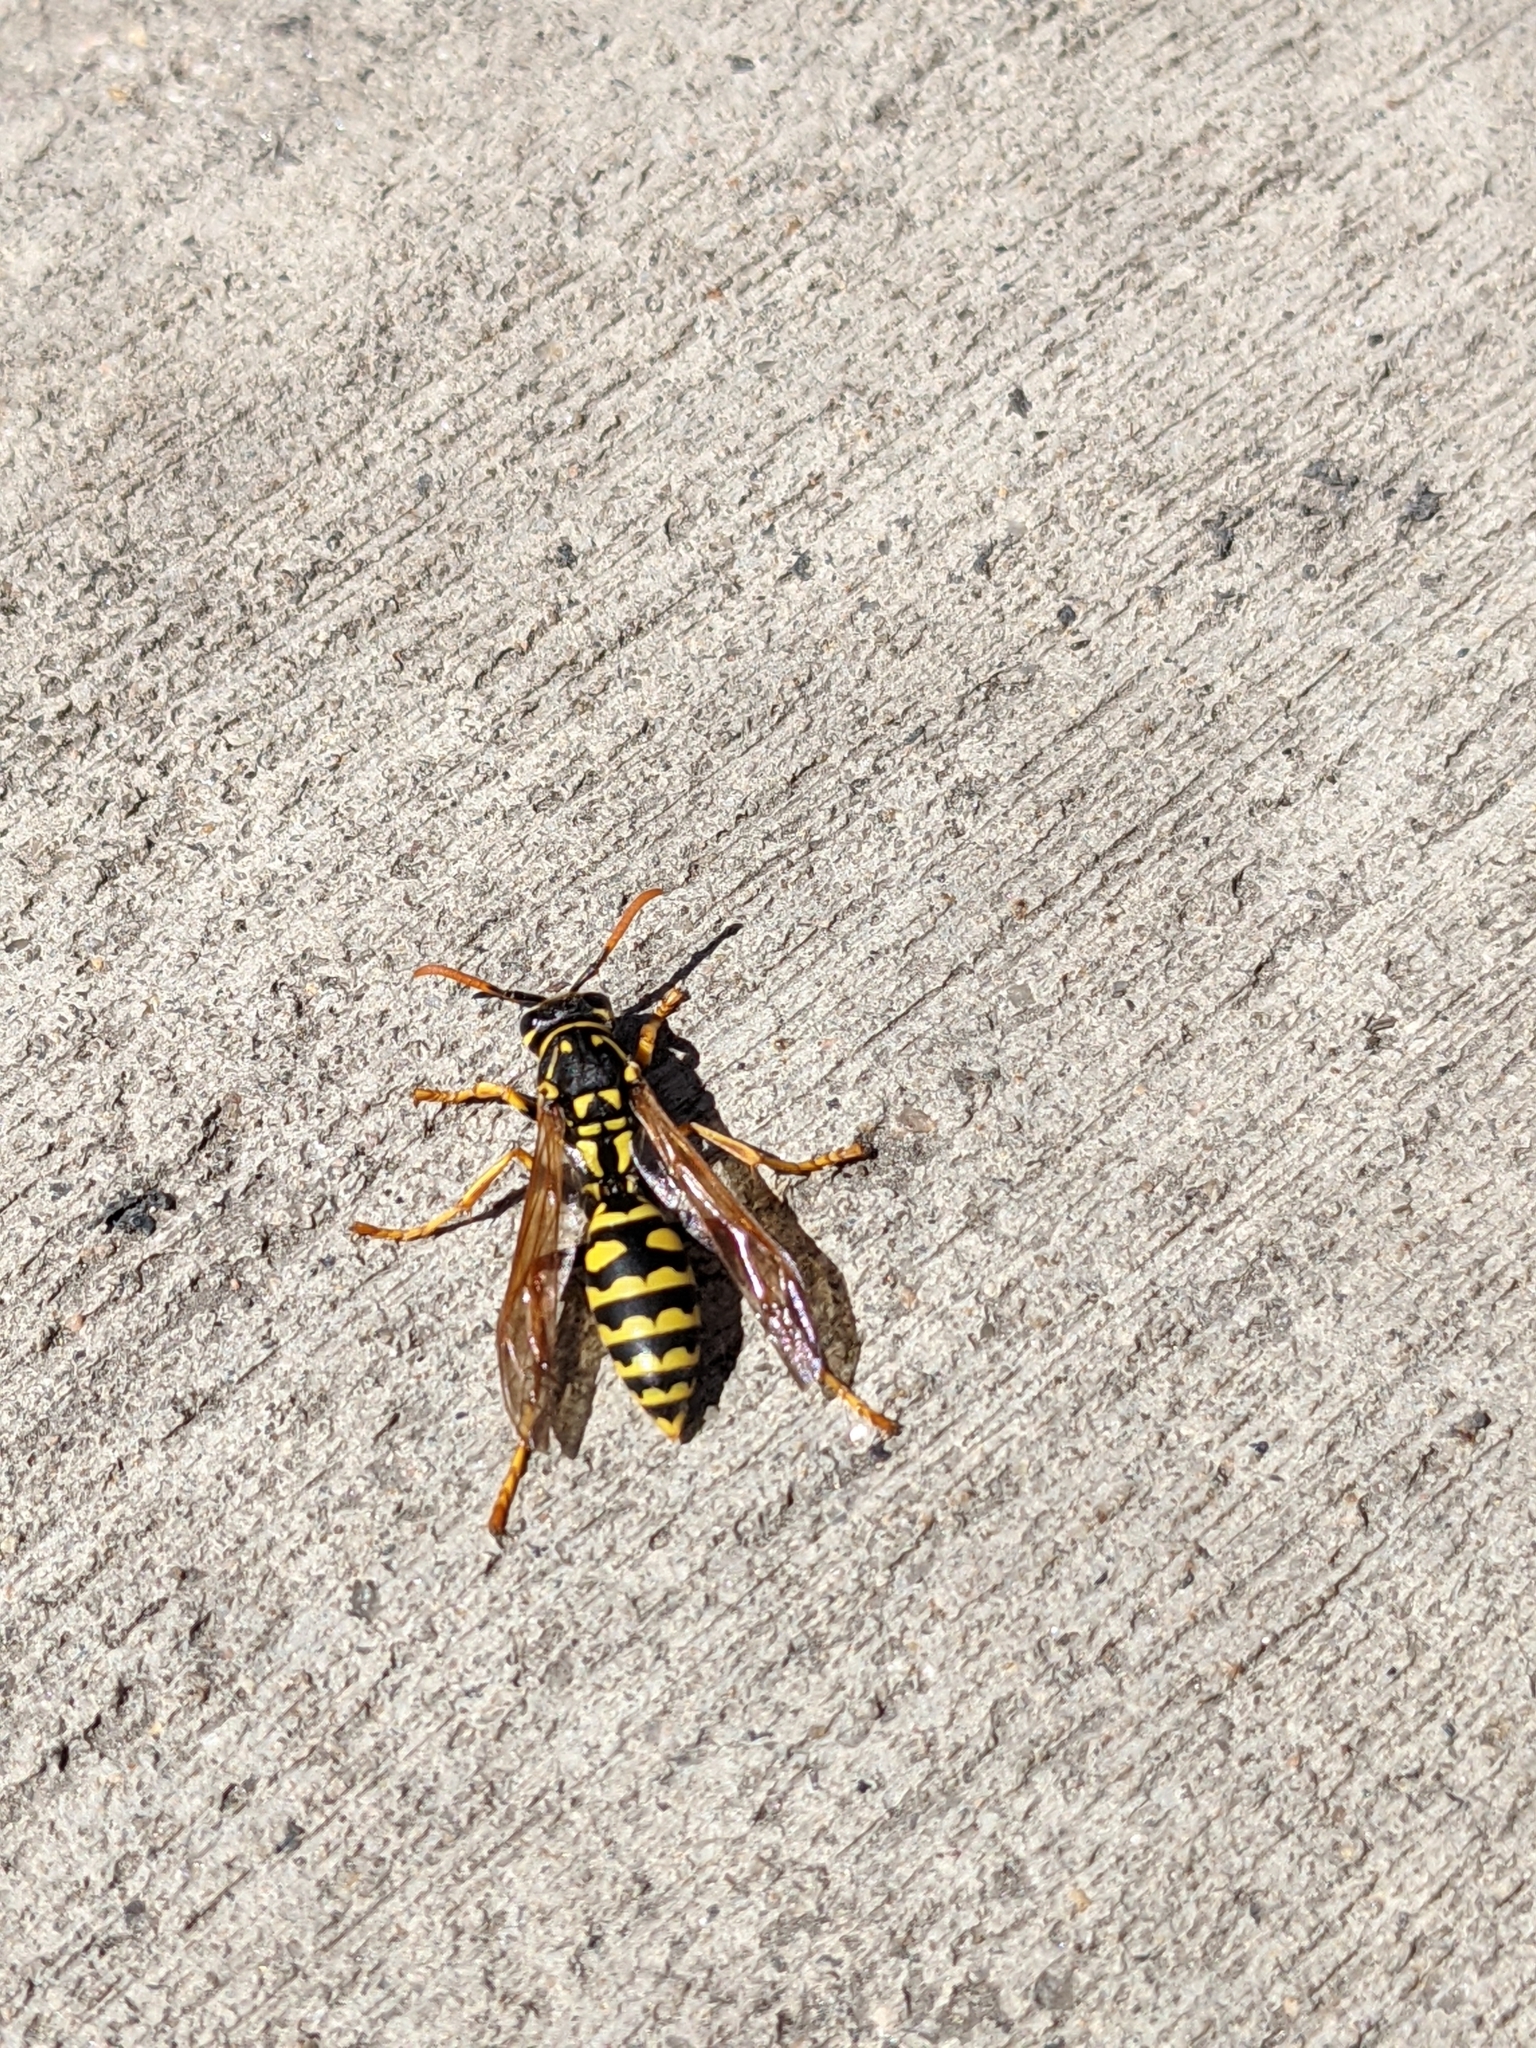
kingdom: Animalia
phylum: Arthropoda
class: Insecta
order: Hymenoptera
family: Eumenidae
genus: Polistes
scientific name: Polistes dominula
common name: Paper wasp
